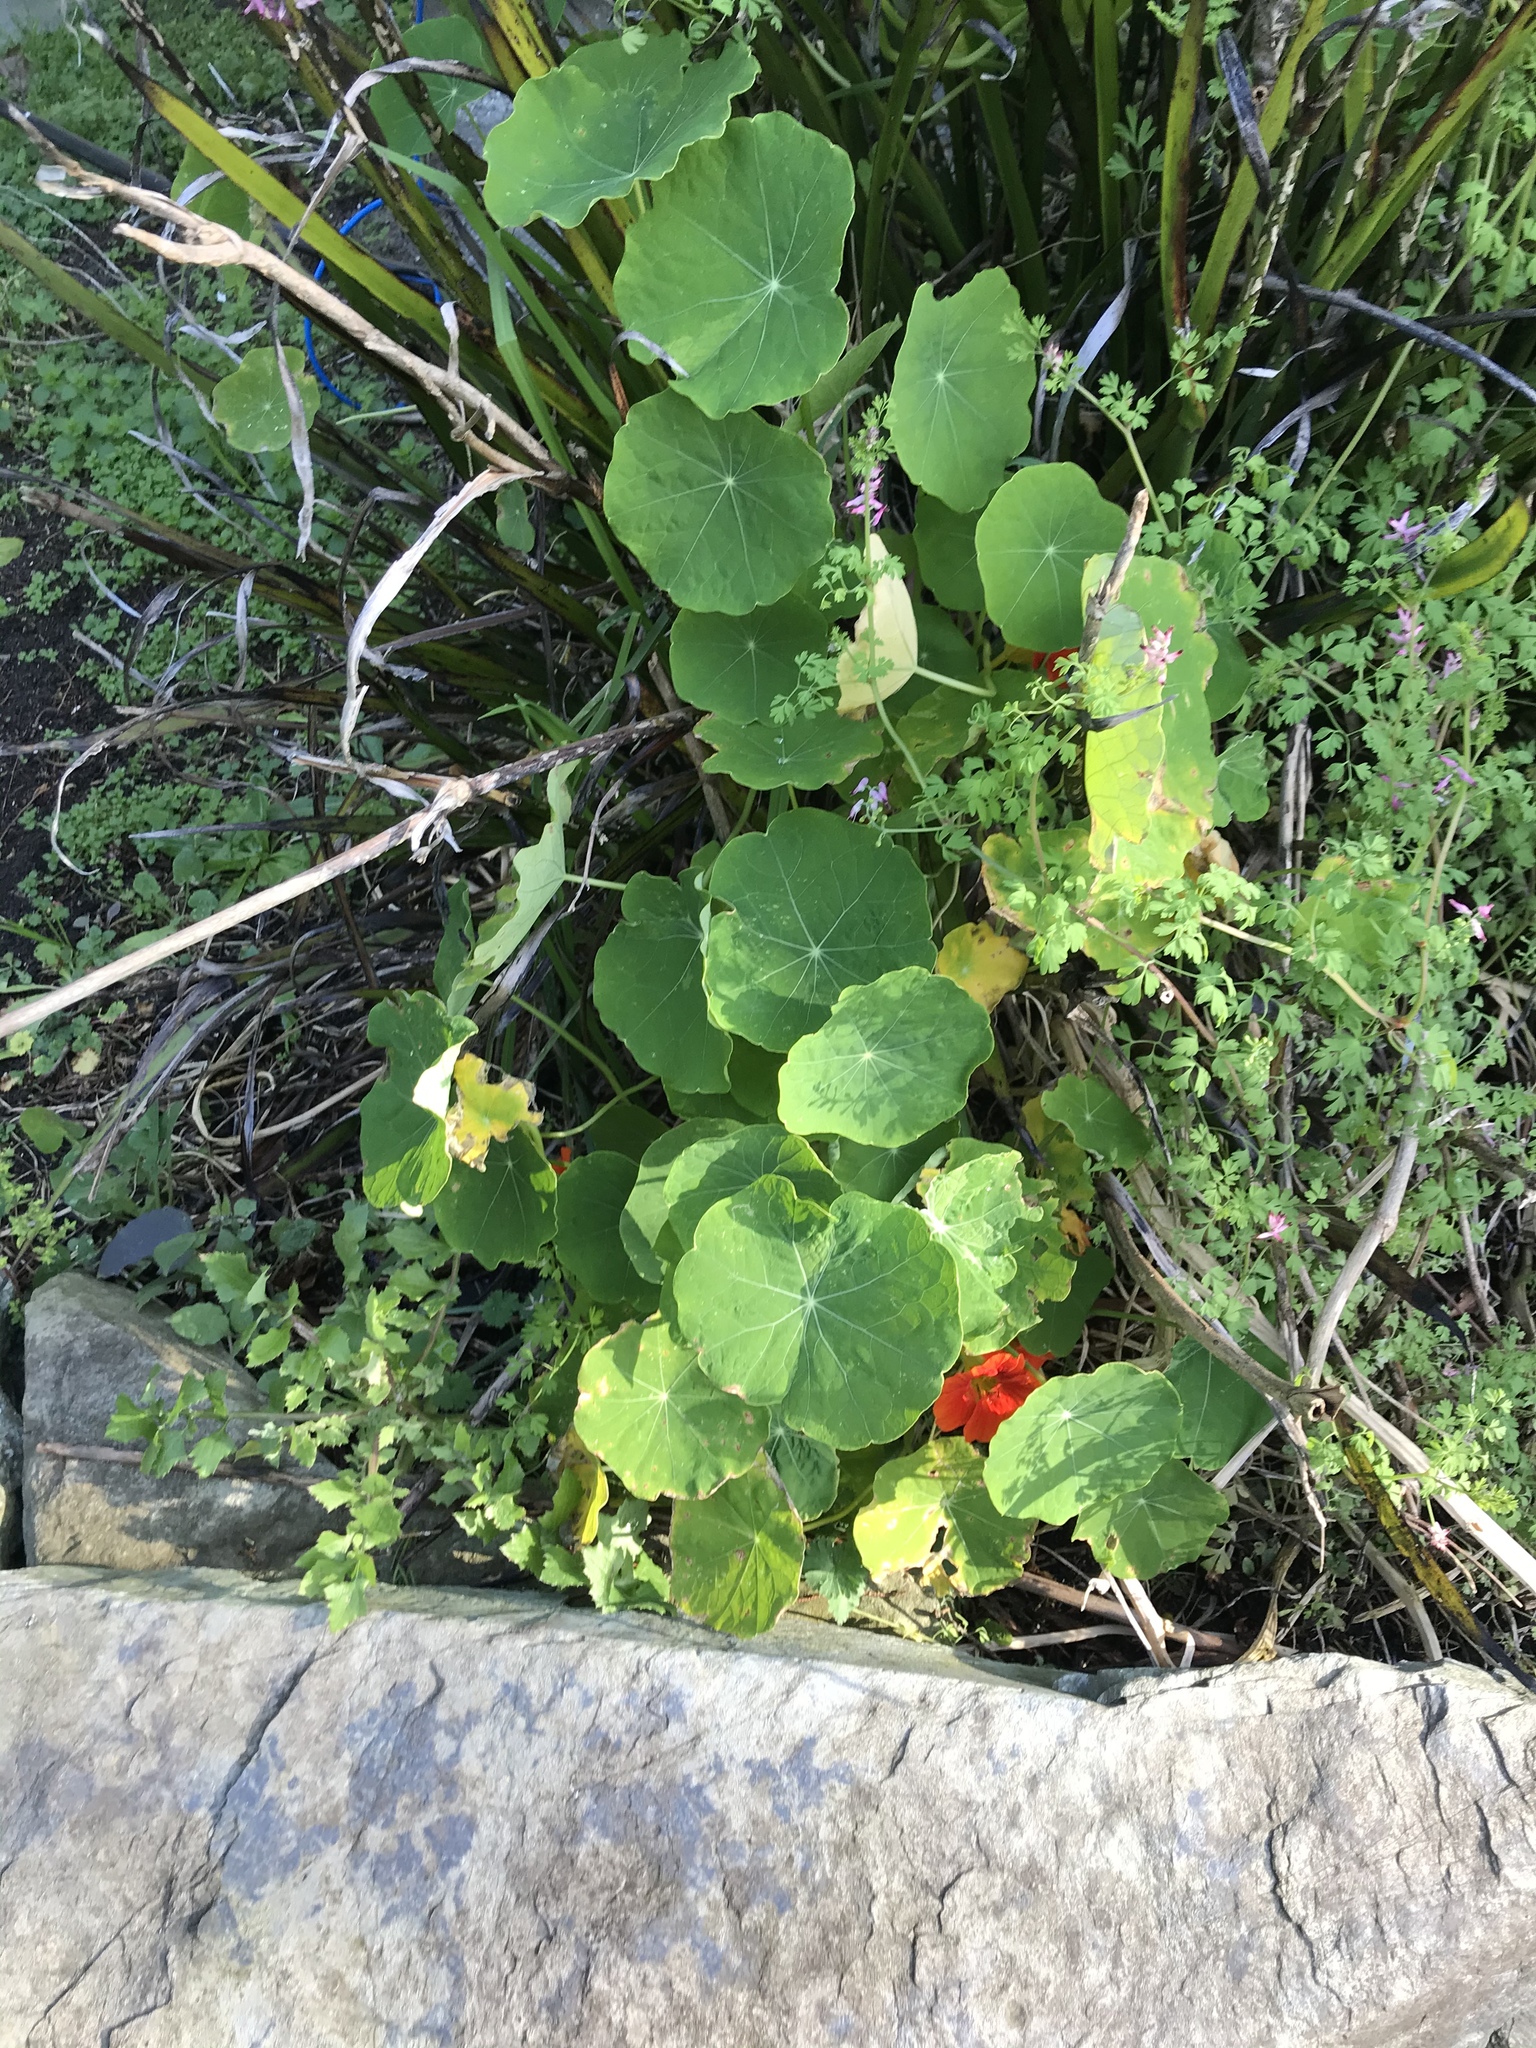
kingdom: Plantae
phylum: Tracheophyta
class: Magnoliopsida
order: Brassicales
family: Tropaeolaceae
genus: Tropaeolum
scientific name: Tropaeolum majus
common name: Nasturtium
